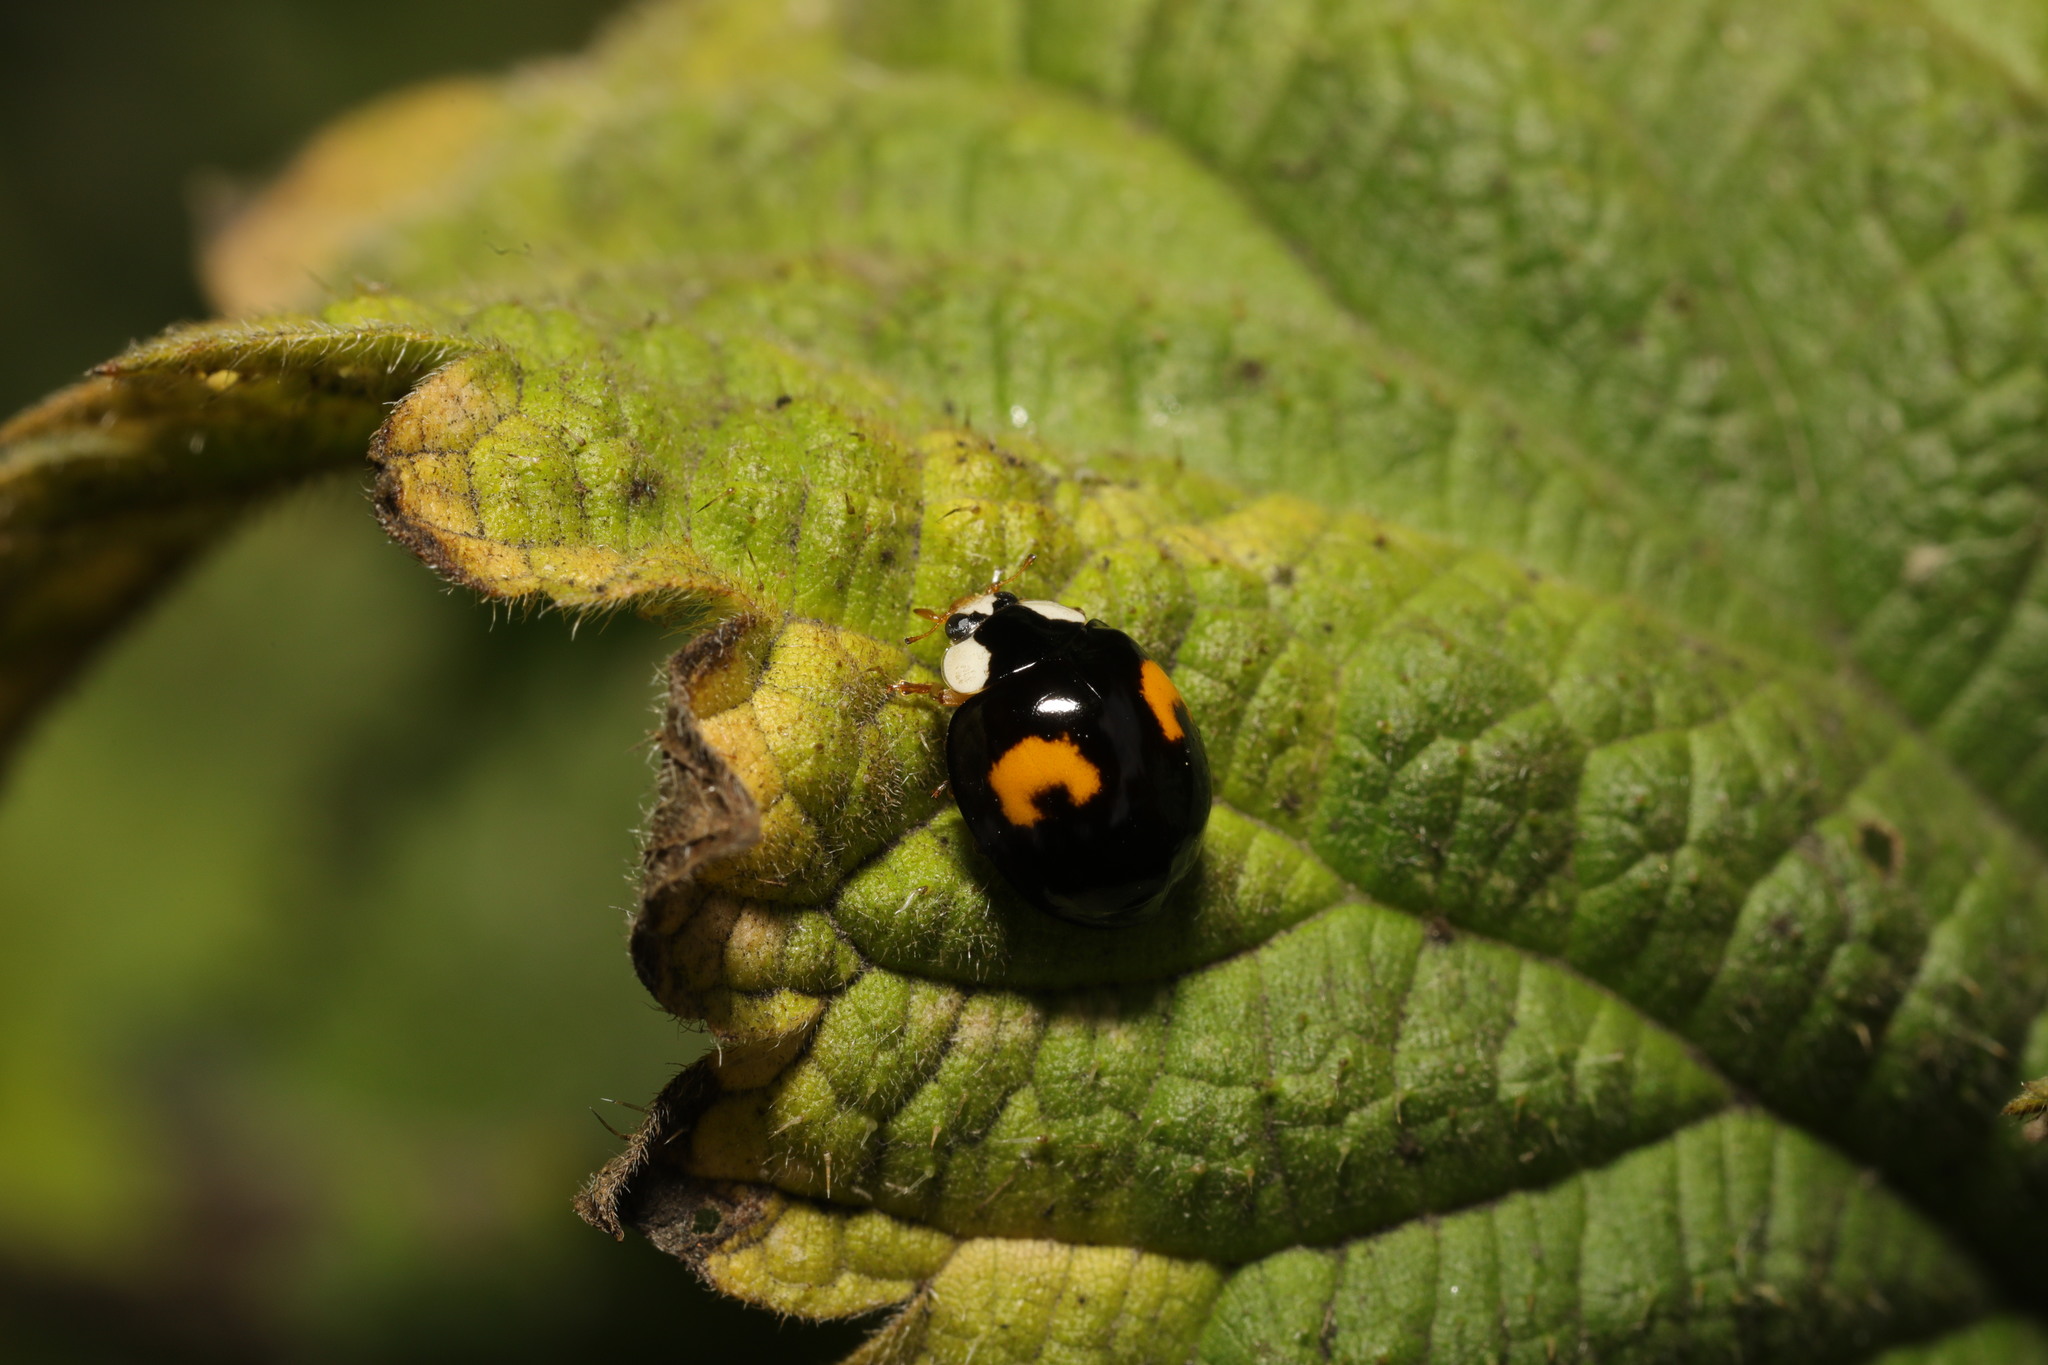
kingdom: Animalia
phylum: Arthropoda
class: Insecta
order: Coleoptera
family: Coccinellidae
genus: Harmonia
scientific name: Harmonia axyridis
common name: Harlequin ladybird
